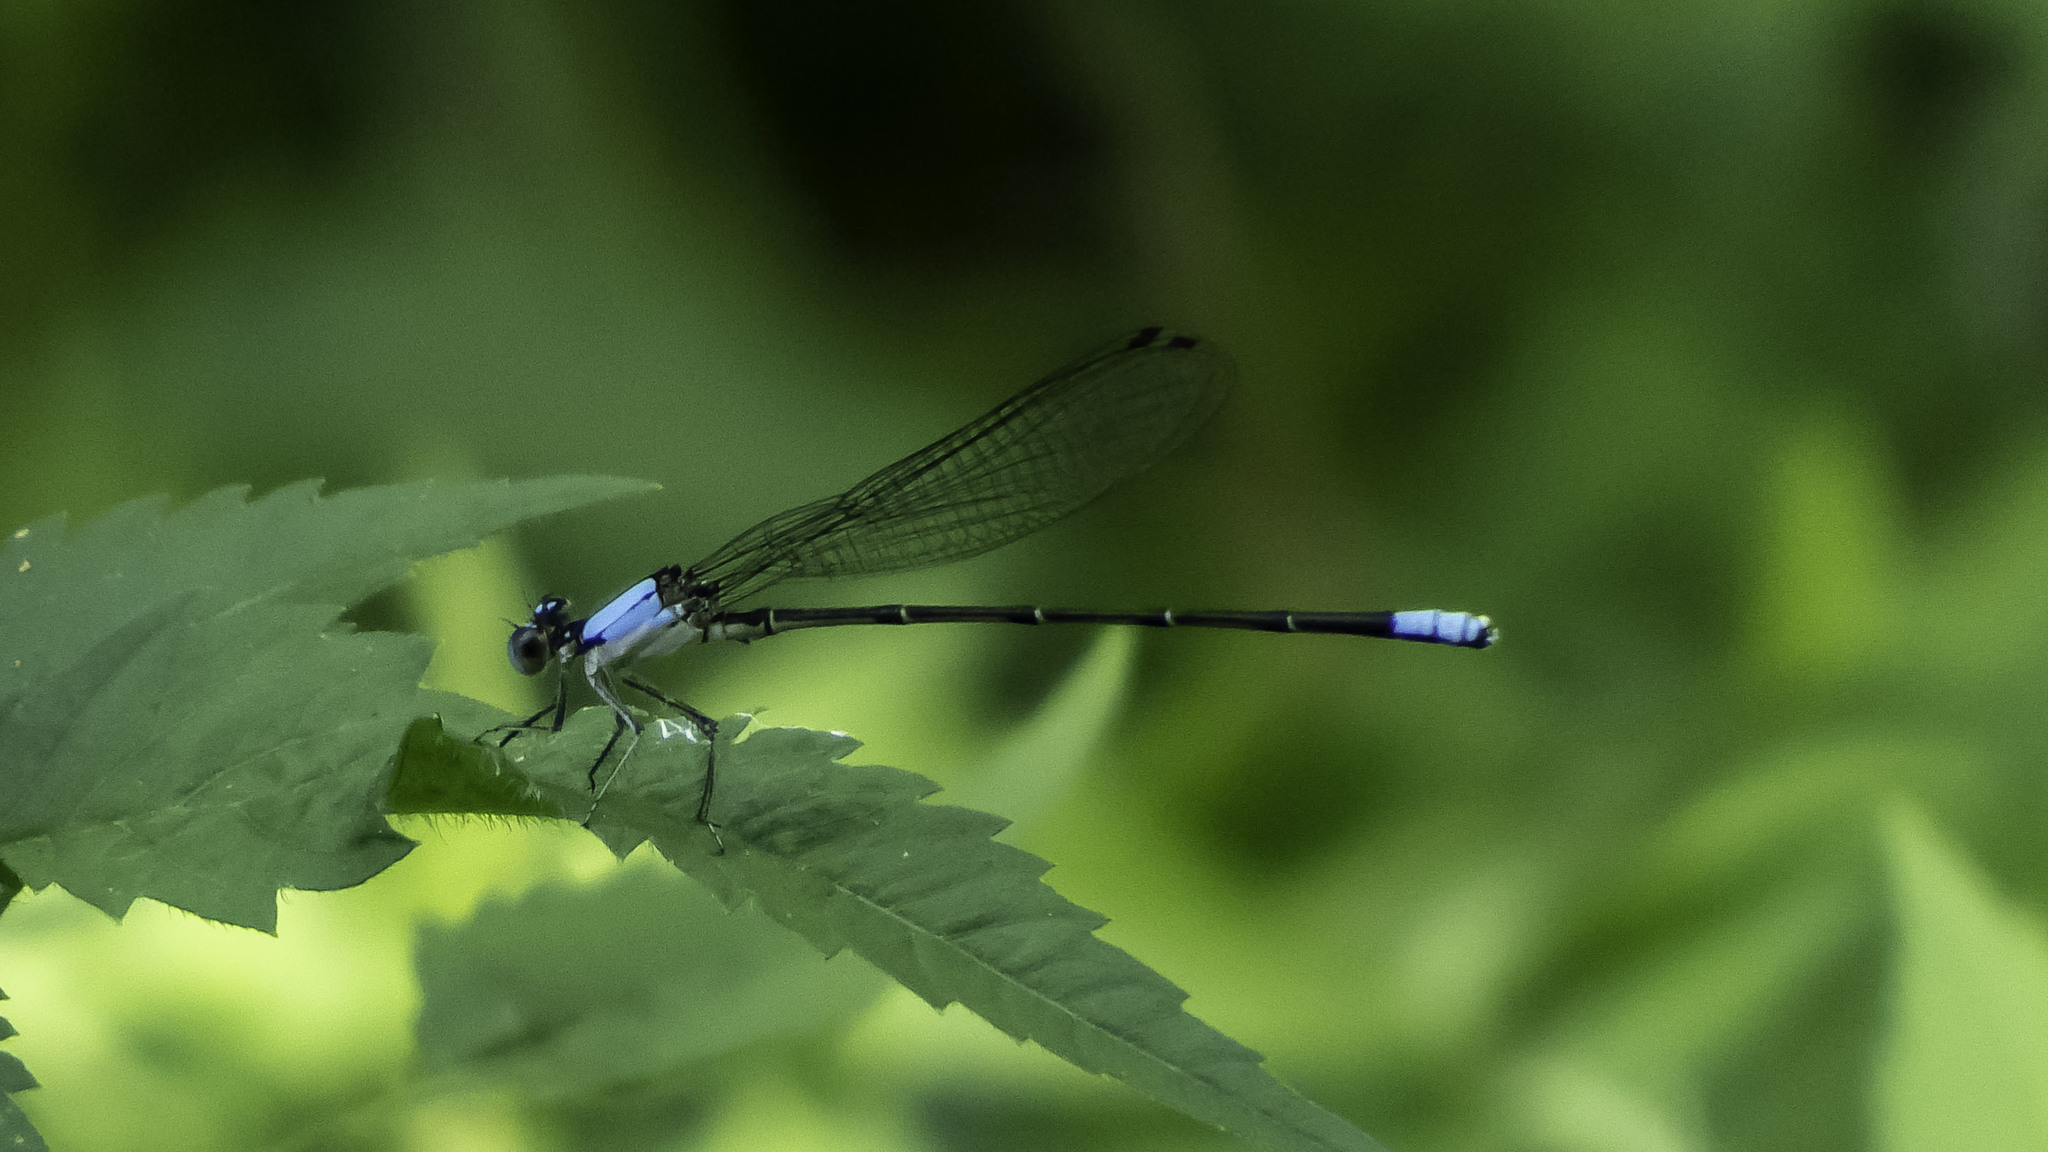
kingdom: Animalia
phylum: Arthropoda
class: Insecta
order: Odonata
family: Coenagrionidae
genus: Argia
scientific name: Argia apicalis
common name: Blue-fronted dancer
